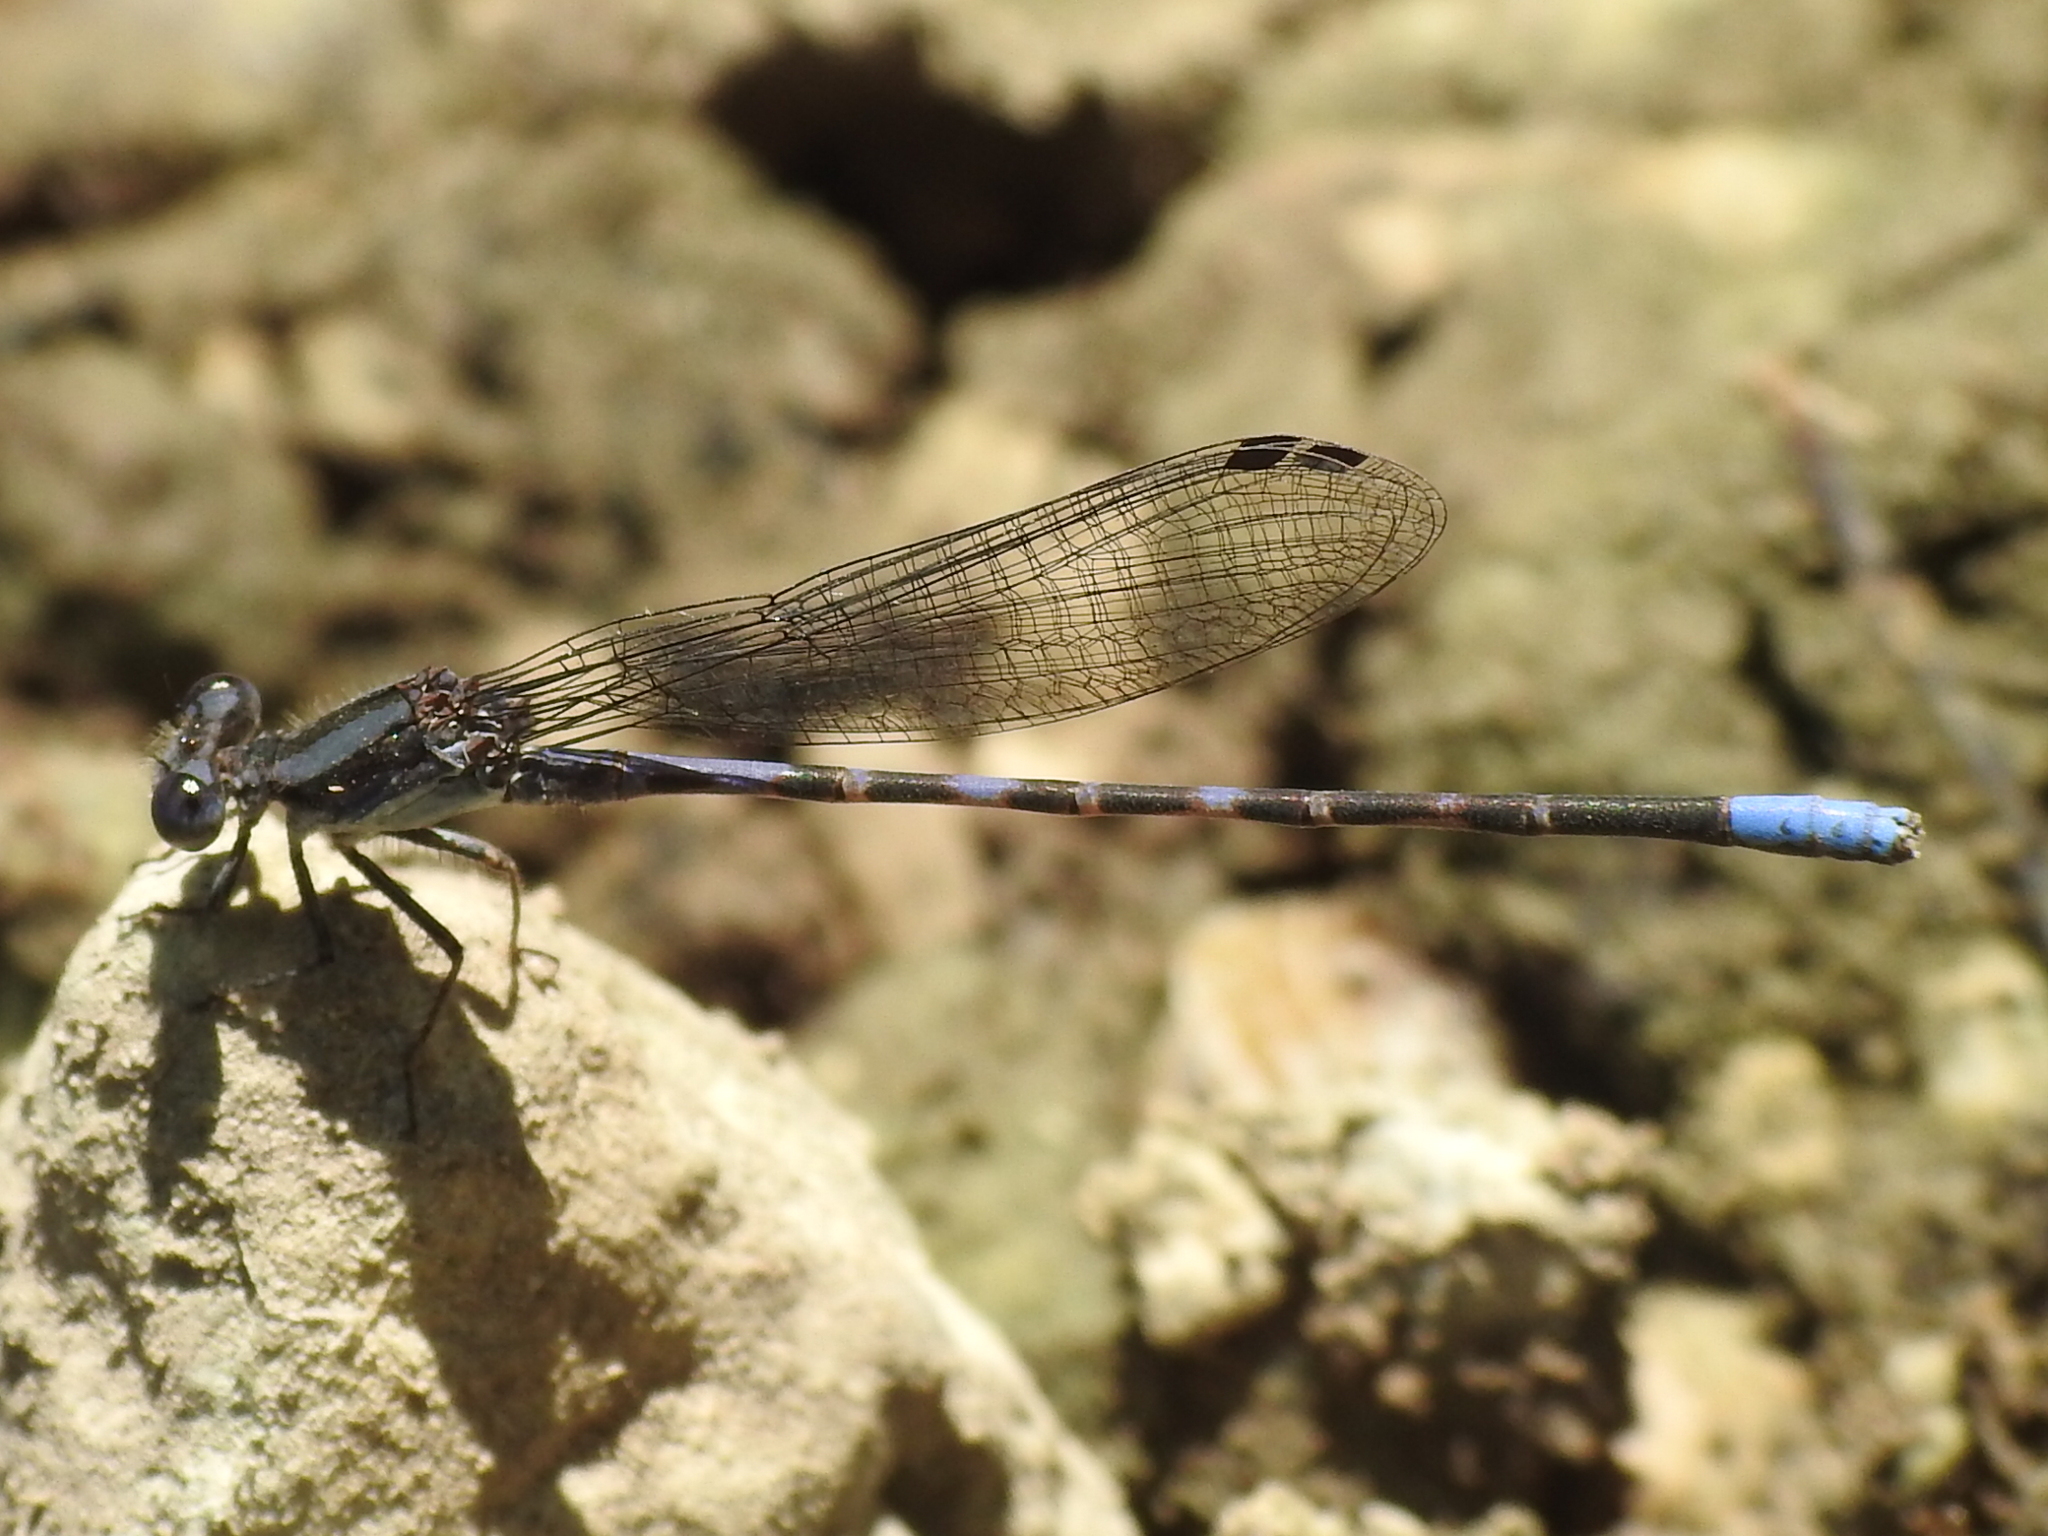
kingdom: Animalia
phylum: Arthropoda
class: Insecta
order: Odonata
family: Coenagrionidae
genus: Argia
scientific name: Argia immunda
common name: Kiowa dancer
